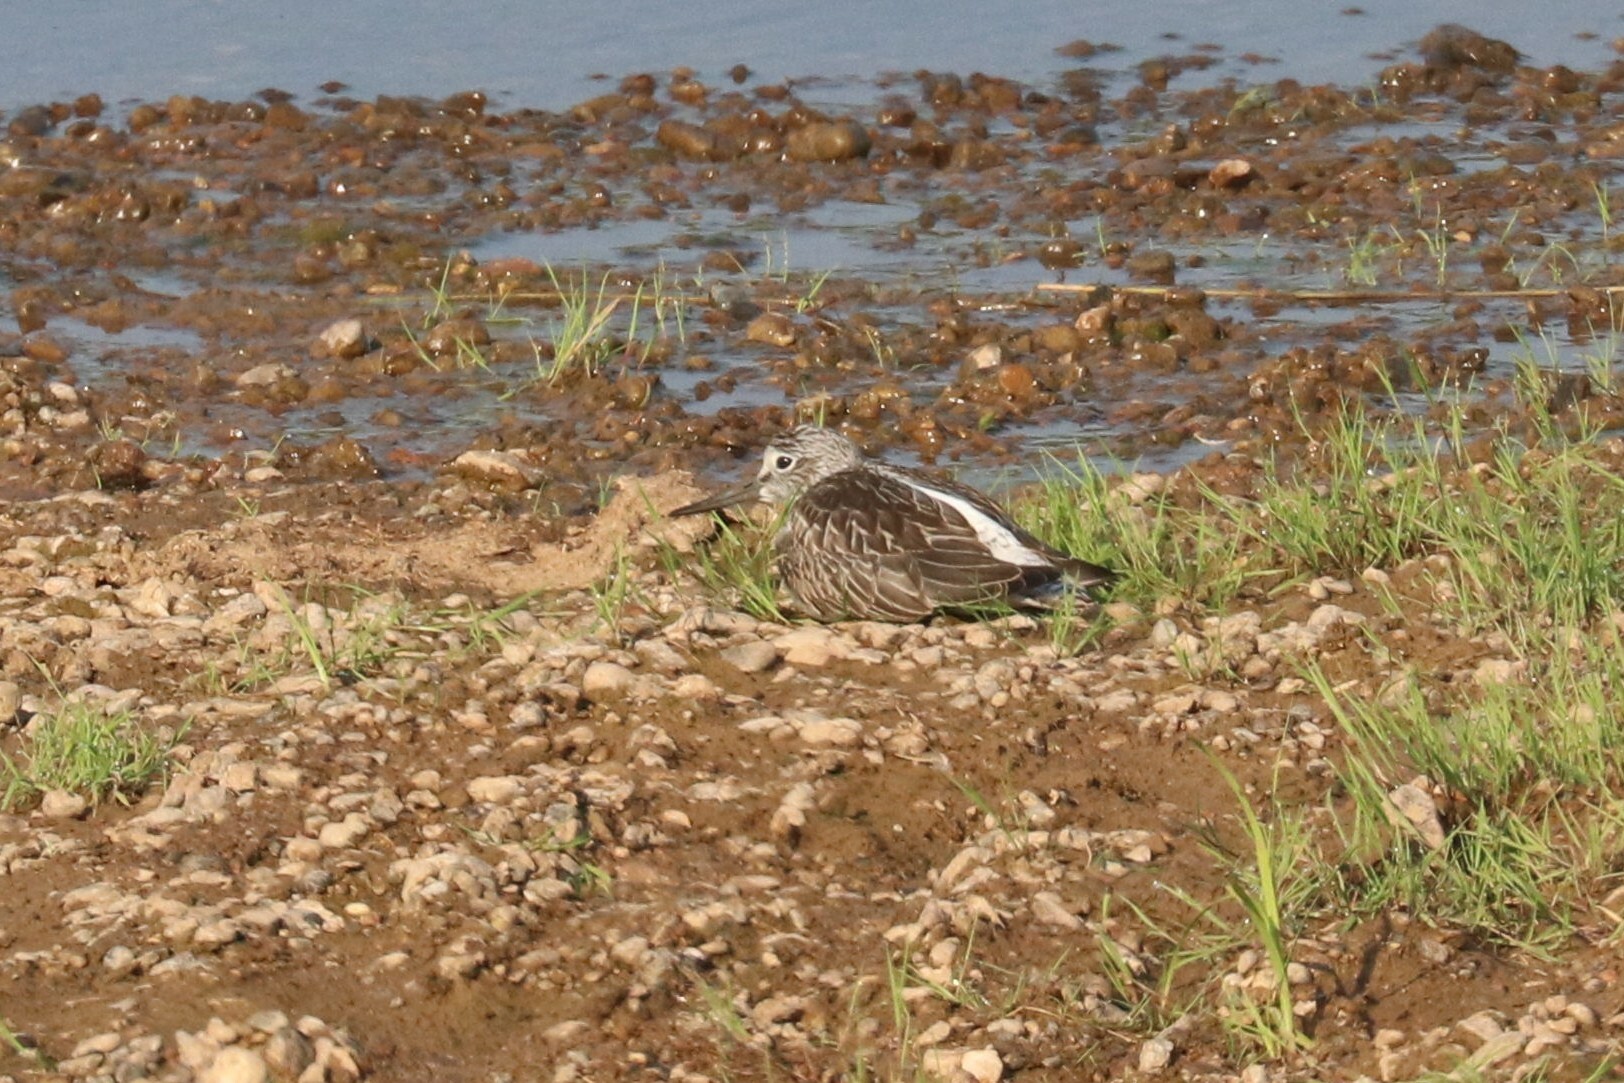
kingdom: Animalia
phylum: Chordata
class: Aves
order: Charadriiformes
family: Scolopacidae
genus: Tringa
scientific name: Tringa nebularia
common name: Common greenshank
